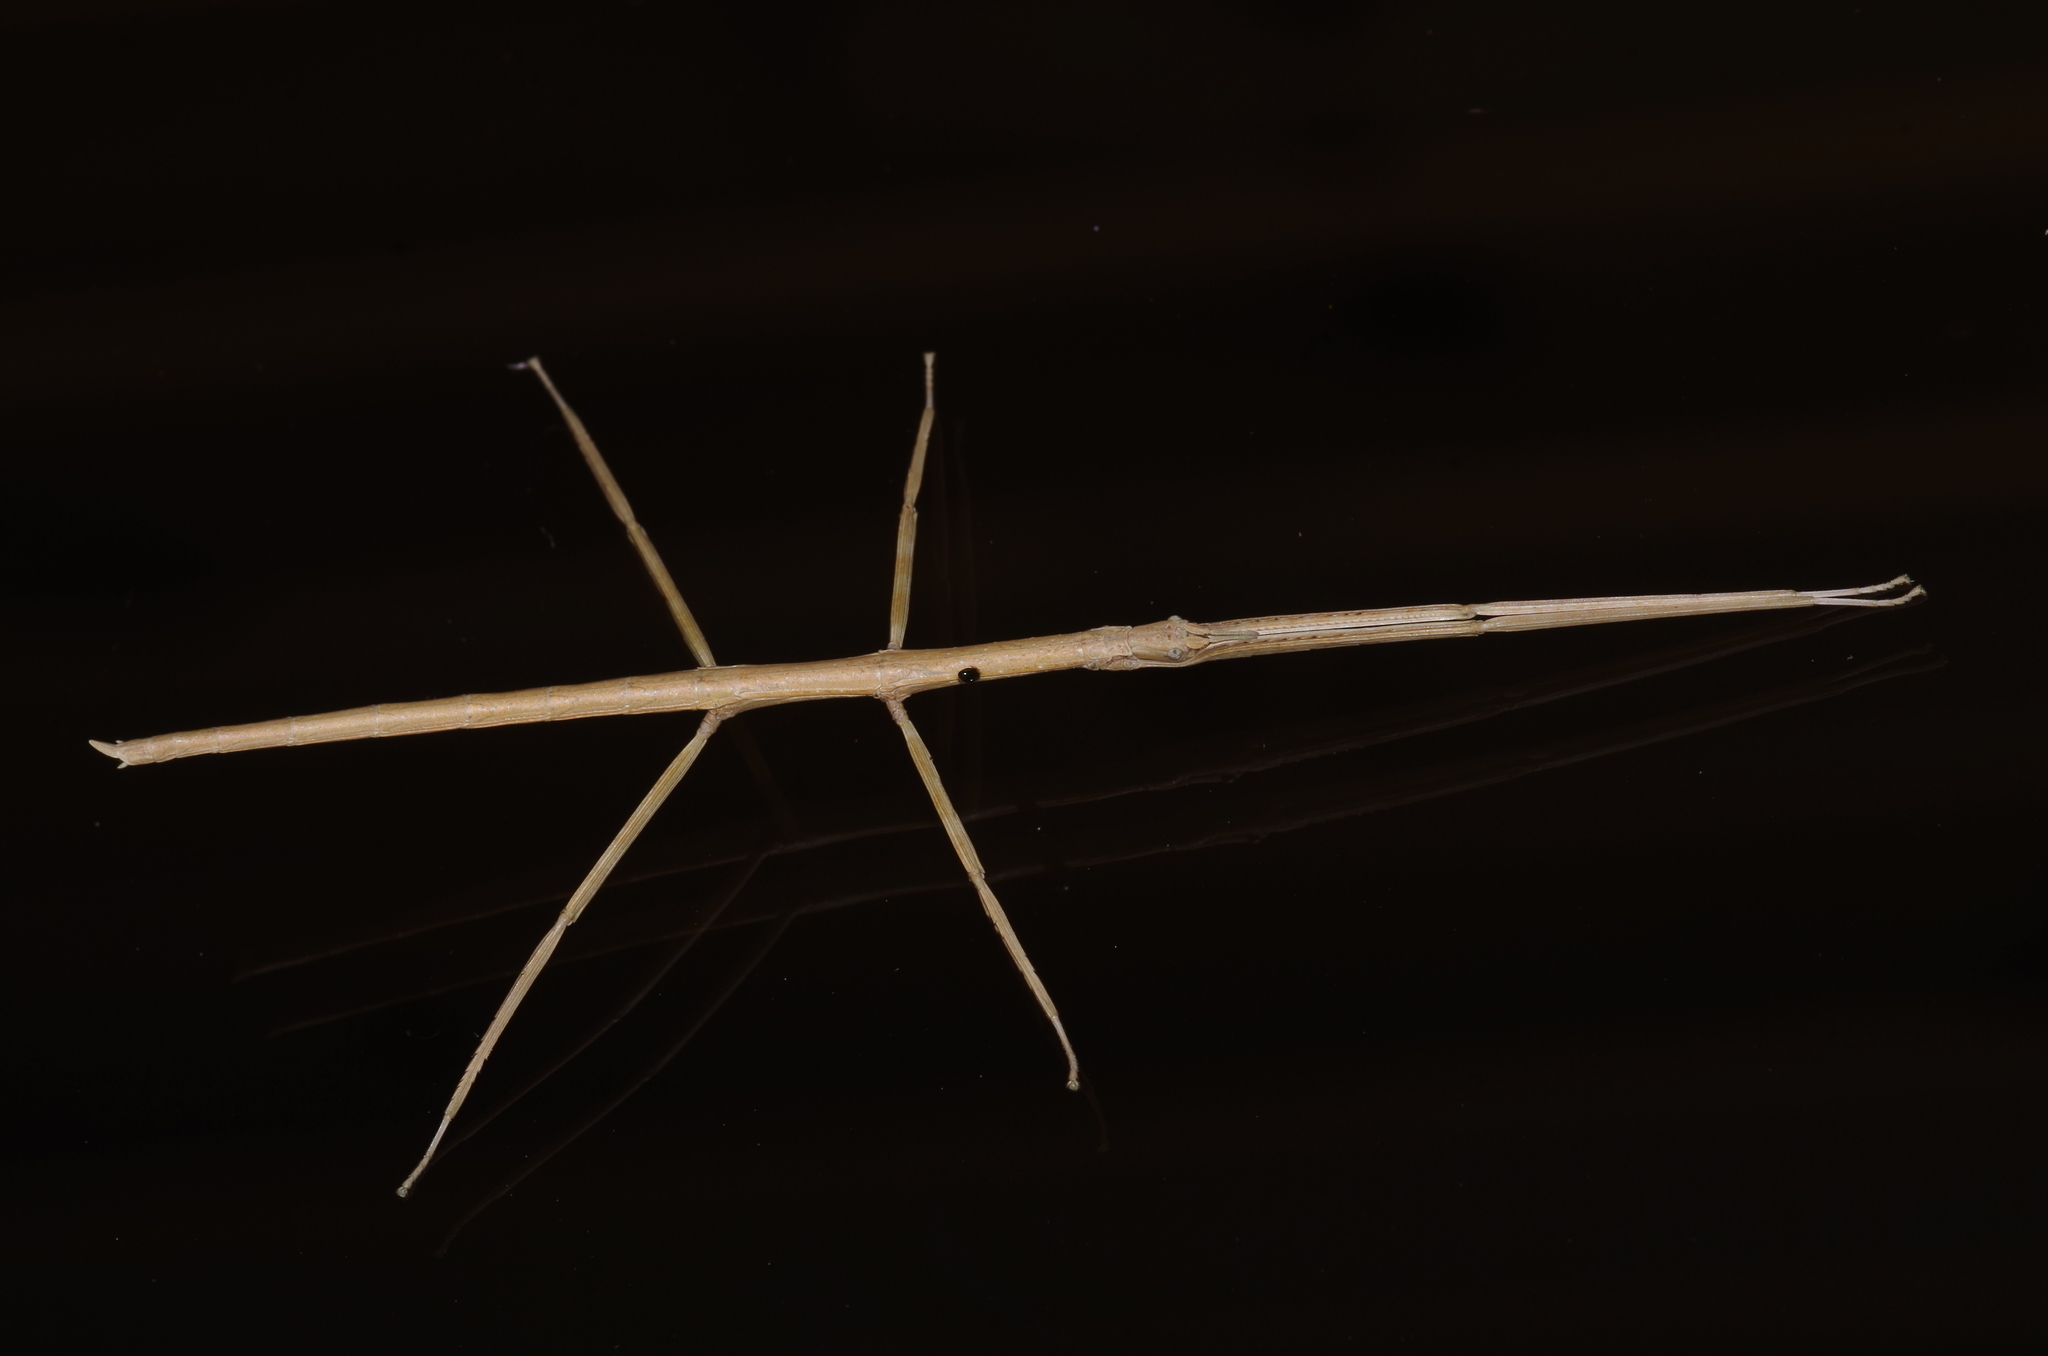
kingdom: Animalia
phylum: Arthropoda
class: Insecta
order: Phasmida
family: Phasmatidae
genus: Entoria
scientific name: Entoria miyakoensis
